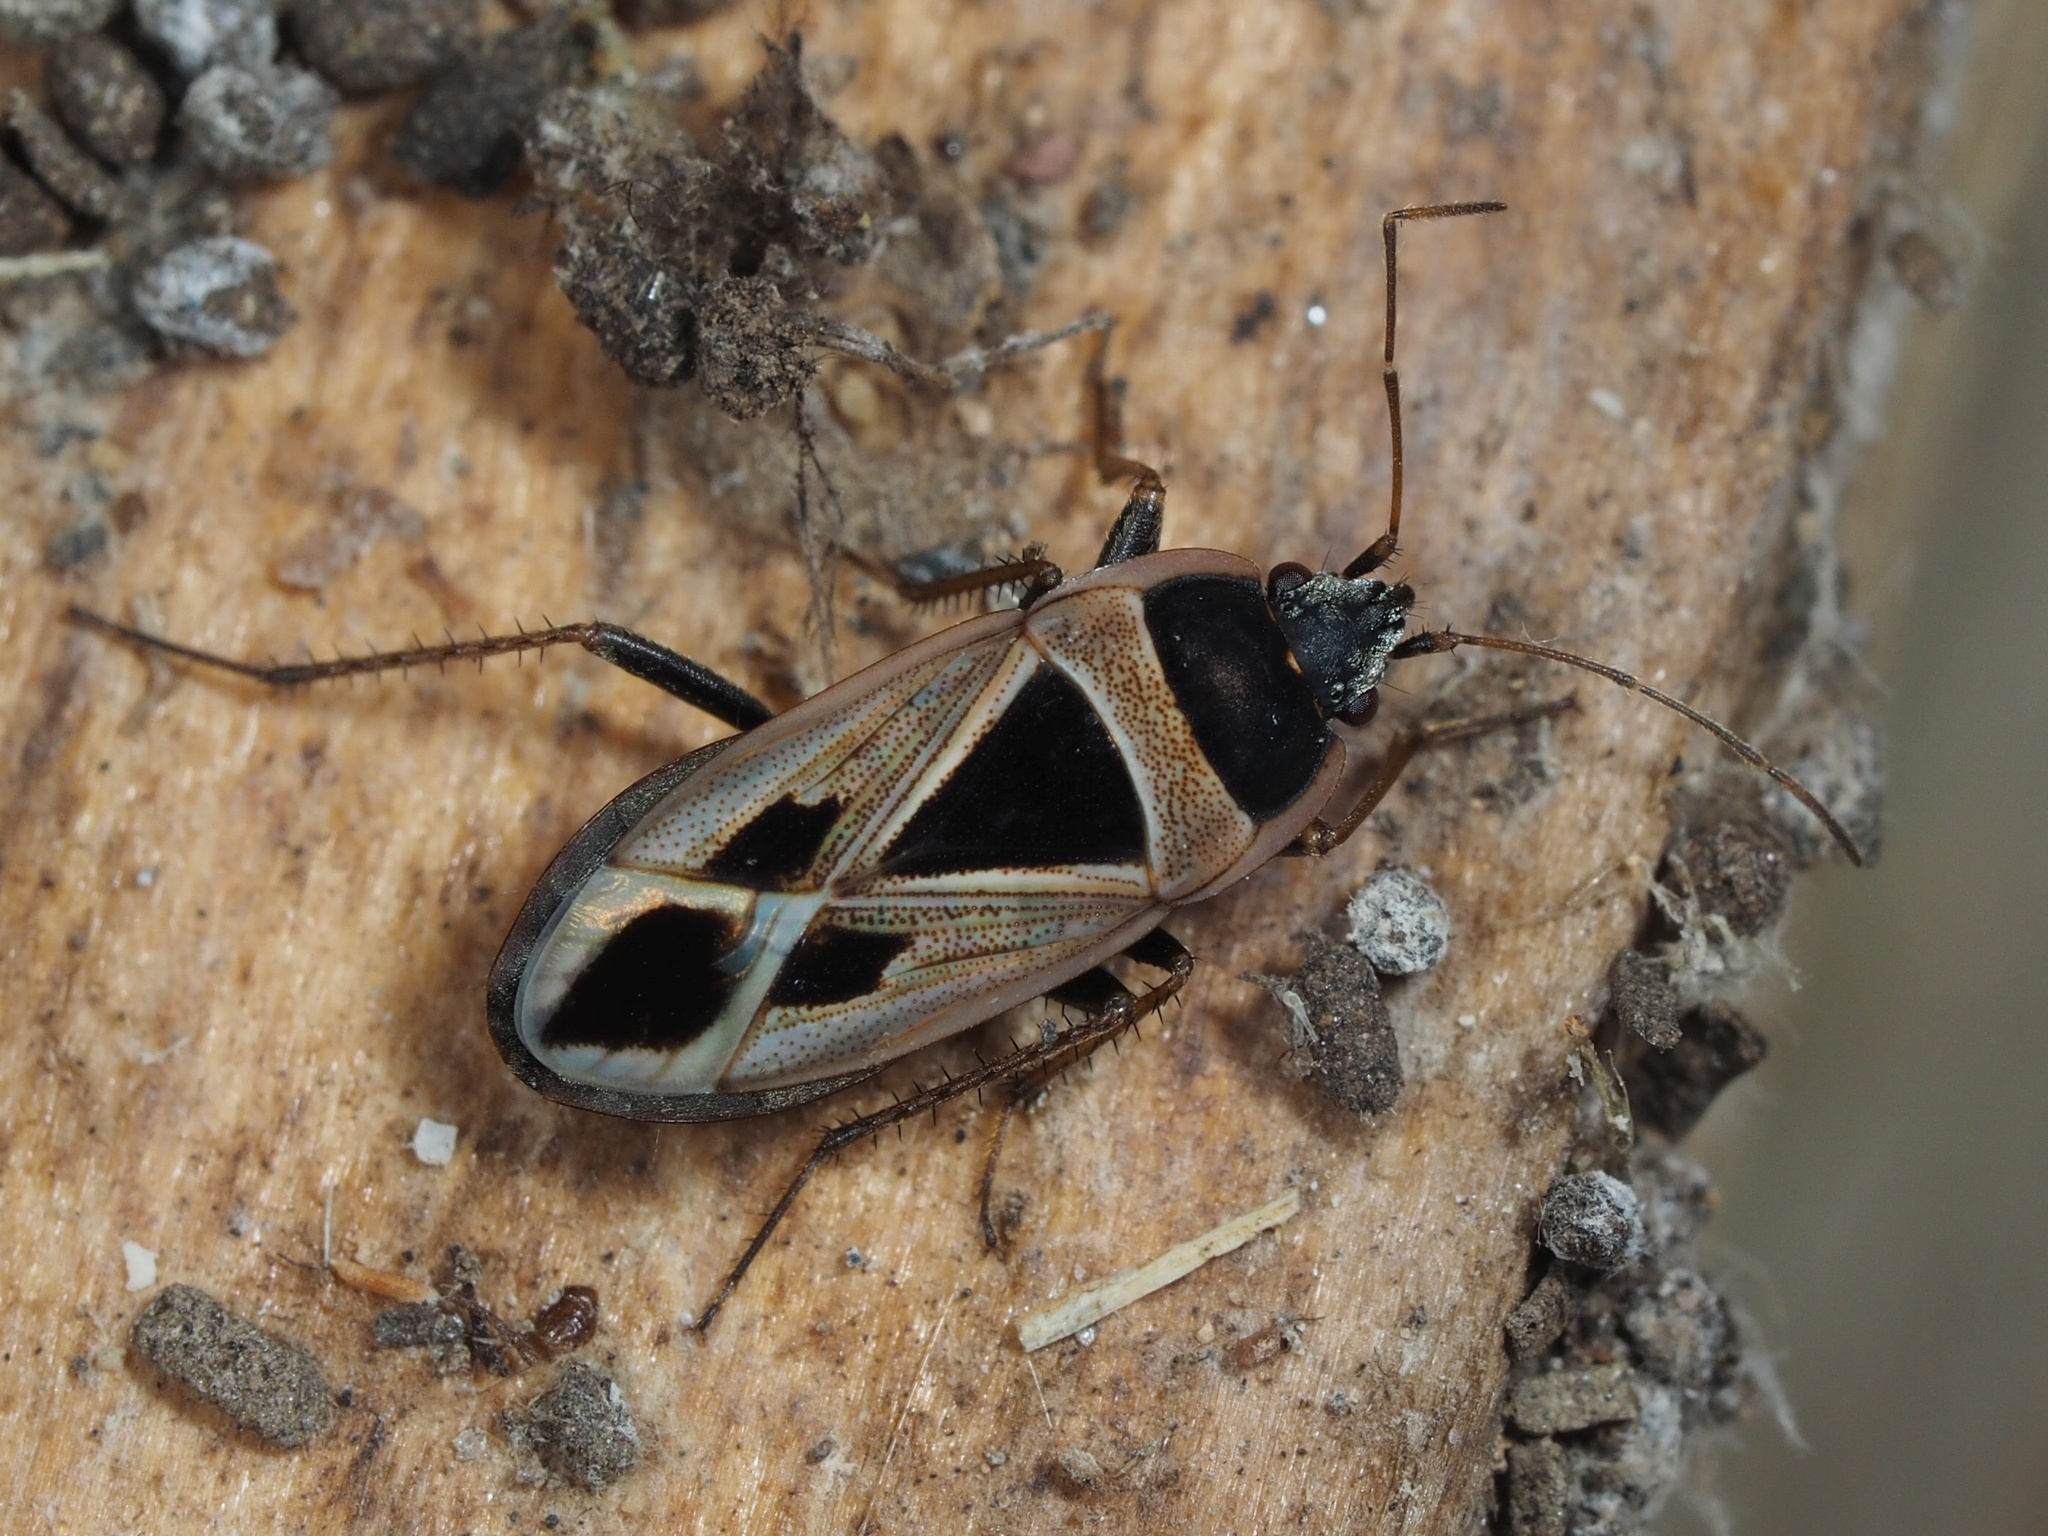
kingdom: Animalia
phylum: Arthropoda
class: Insecta
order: Hemiptera
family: Rhyparochromidae
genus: Xanthochilus
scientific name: Xanthochilus saturnius
